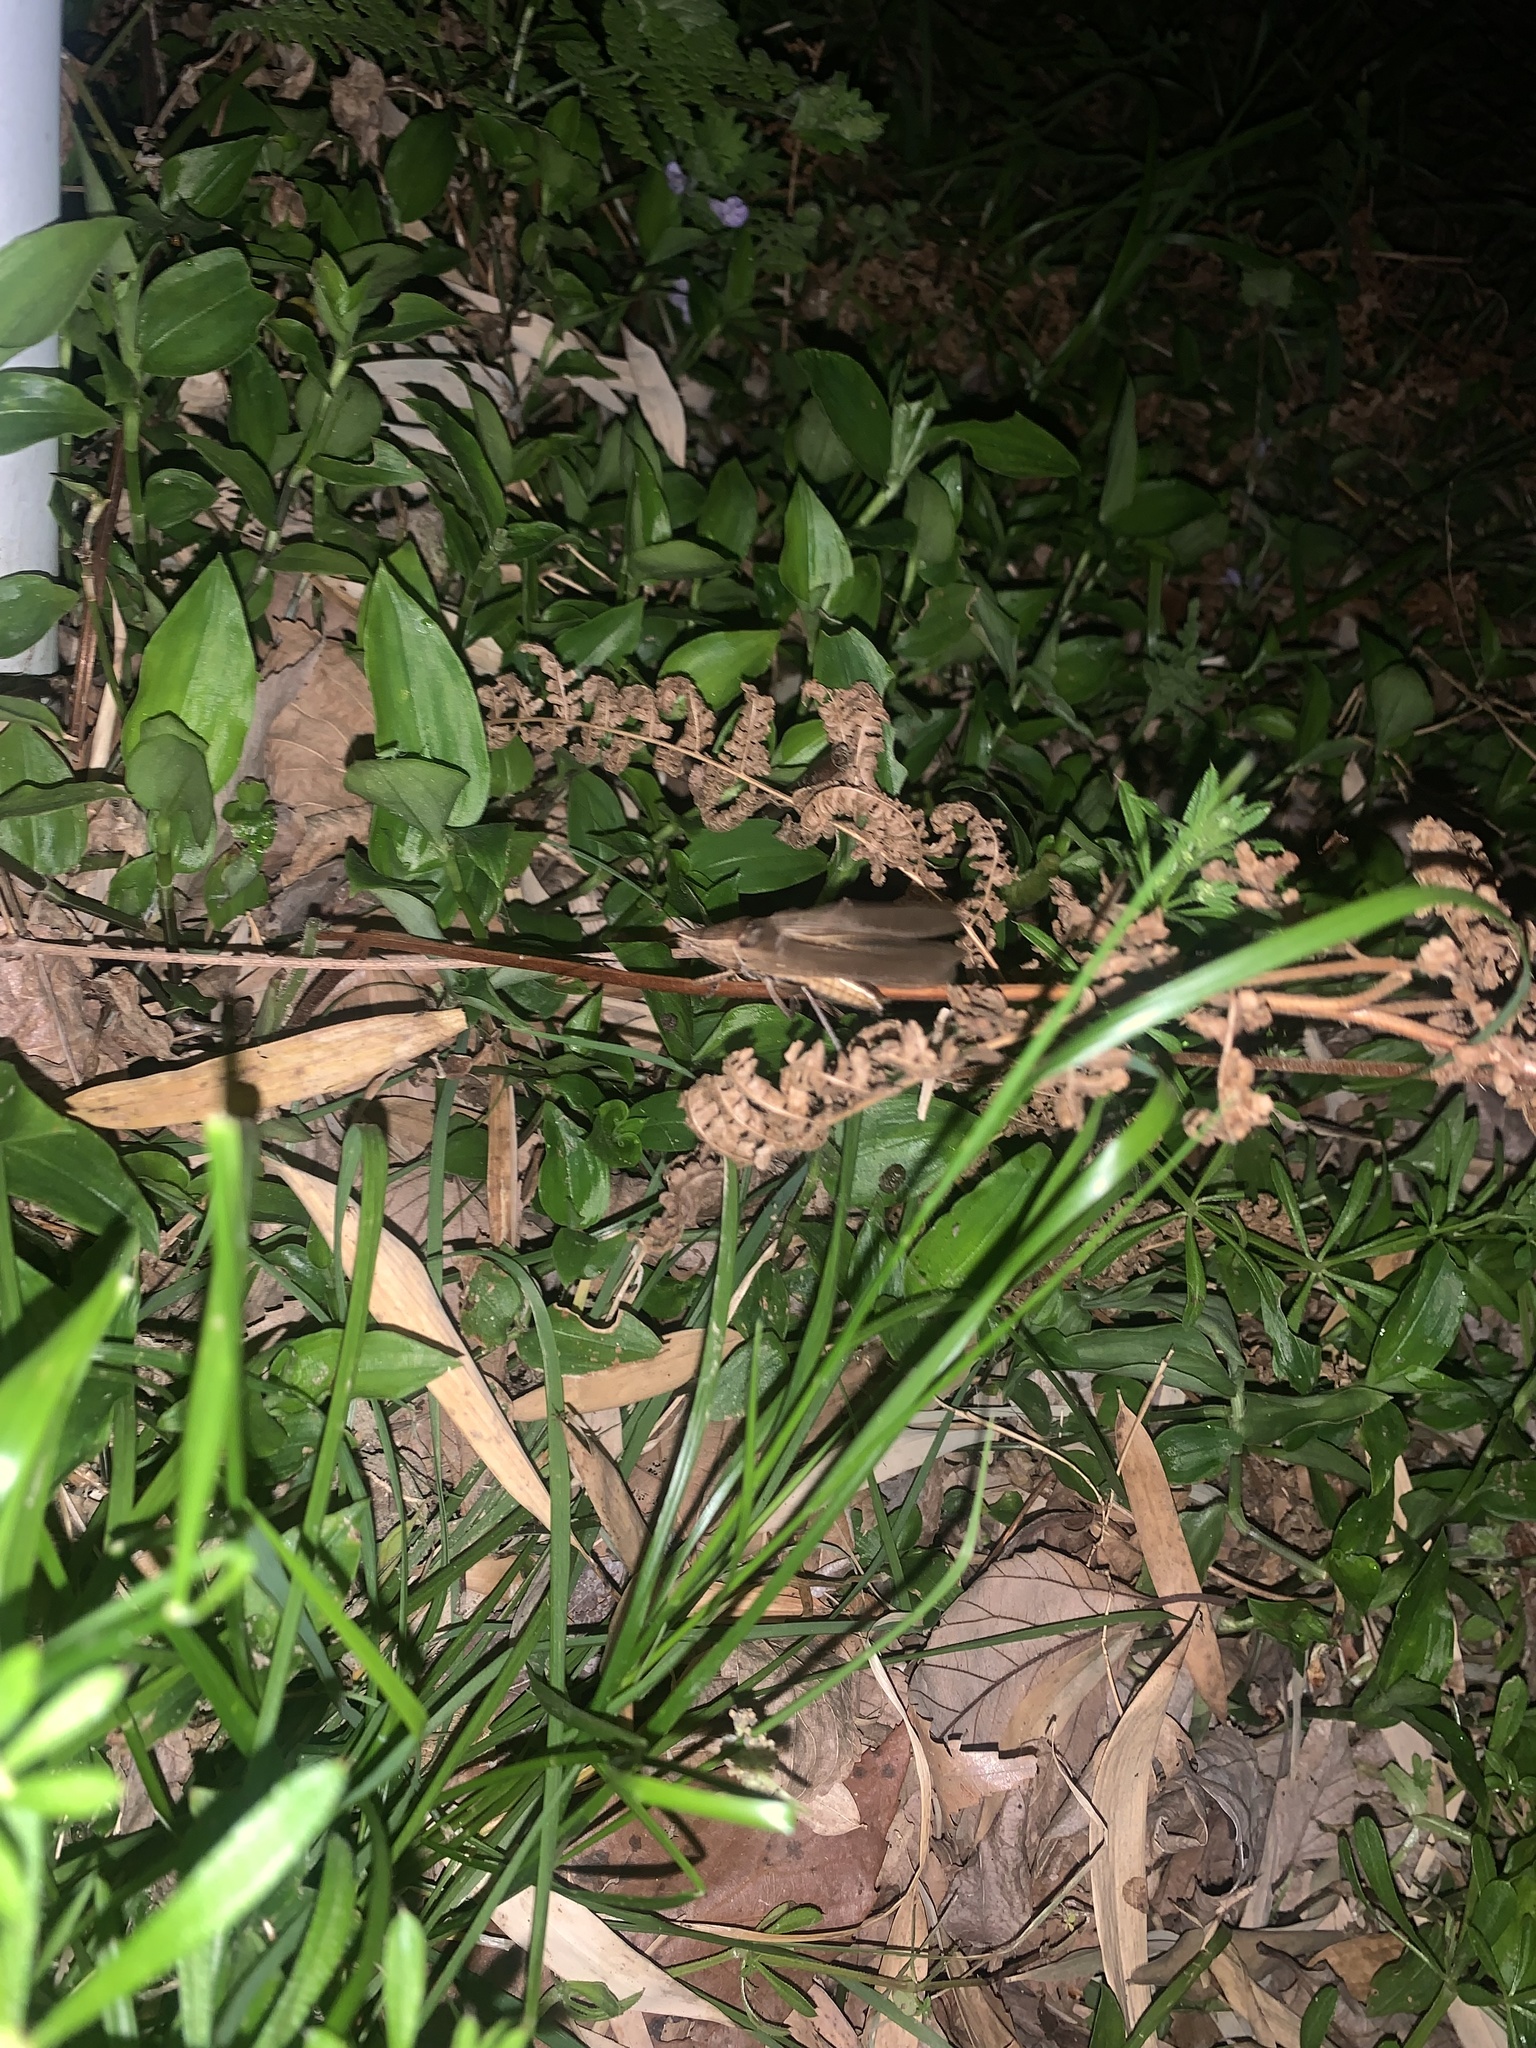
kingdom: Animalia
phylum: Arthropoda
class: Insecta
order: Orthoptera
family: Tettigoniidae
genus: Xestophrys
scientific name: Xestophrys javanicus
